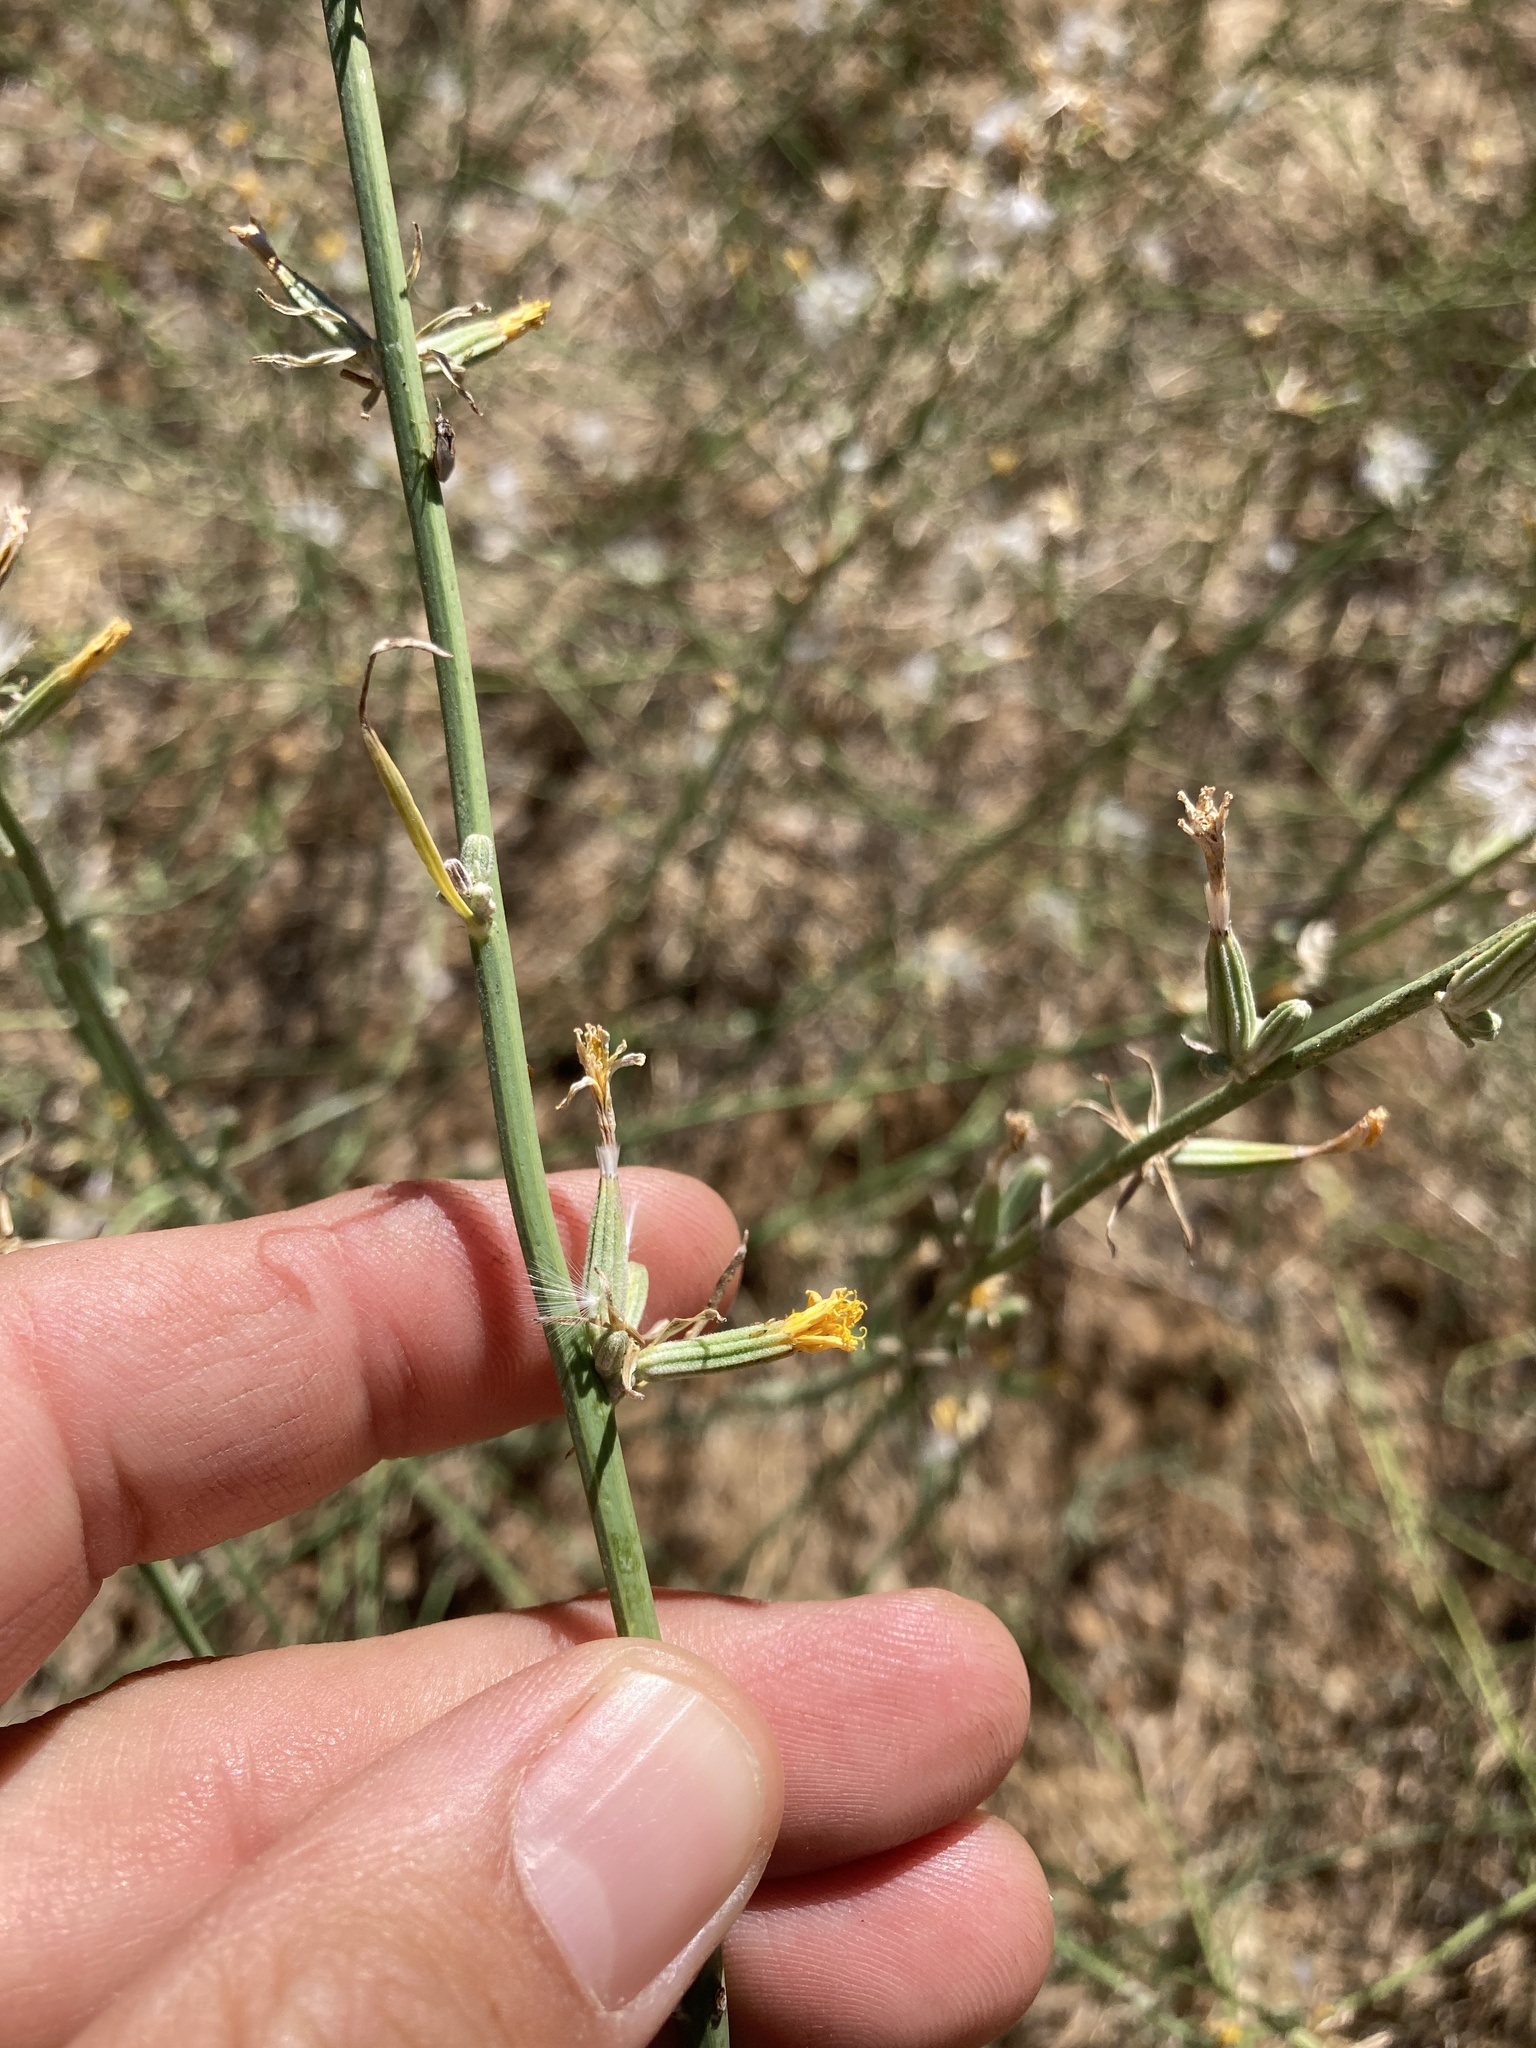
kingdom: Plantae
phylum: Tracheophyta
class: Magnoliopsida
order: Asterales
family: Asteraceae
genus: Chondrilla
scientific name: Chondrilla juncea
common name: Skeleton weed
